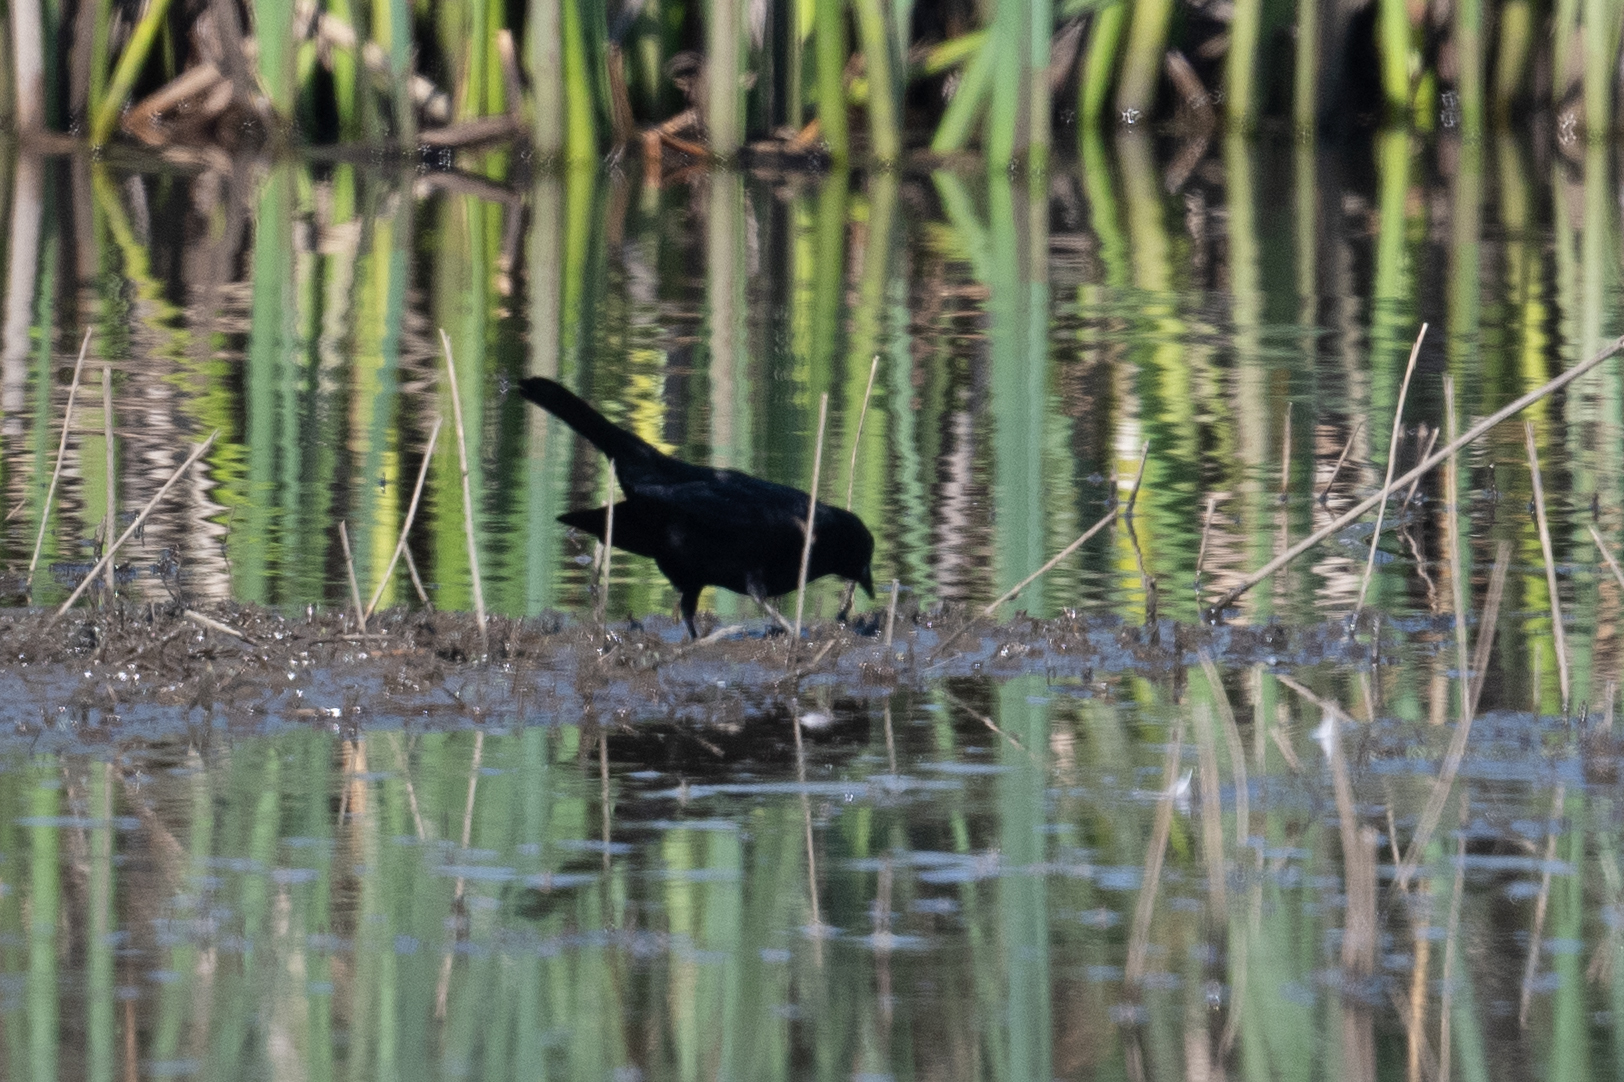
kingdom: Animalia
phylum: Chordata
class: Aves
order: Passeriformes
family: Icteridae
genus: Agelaius
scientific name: Agelaius phoeniceus
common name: Red-winged blackbird
